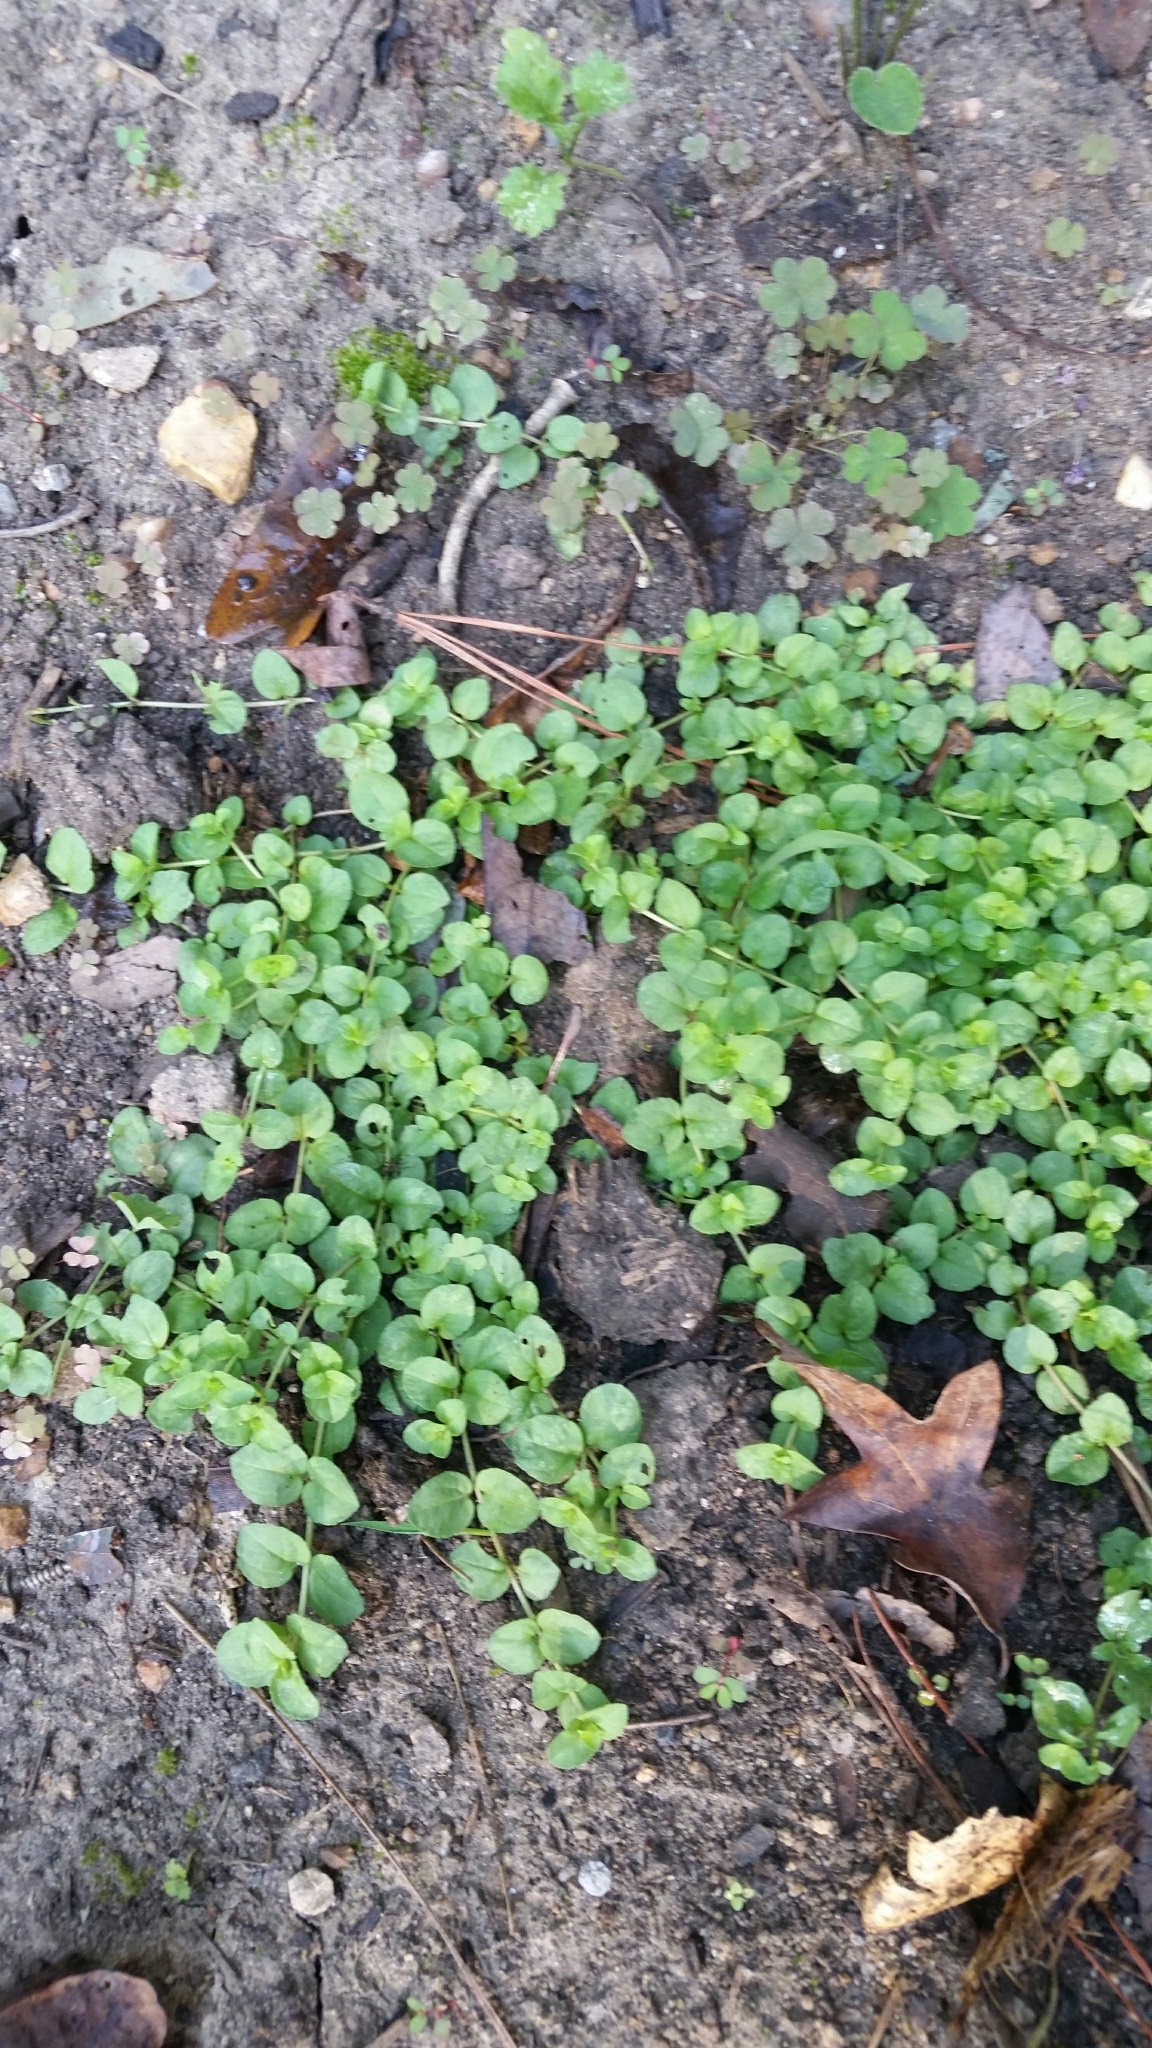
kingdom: Plantae
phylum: Tracheophyta
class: Magnoliopsida
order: Ericales
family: Primulaceae
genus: Lysimachia
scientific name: Lysimachia nummularia
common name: Moneywort
